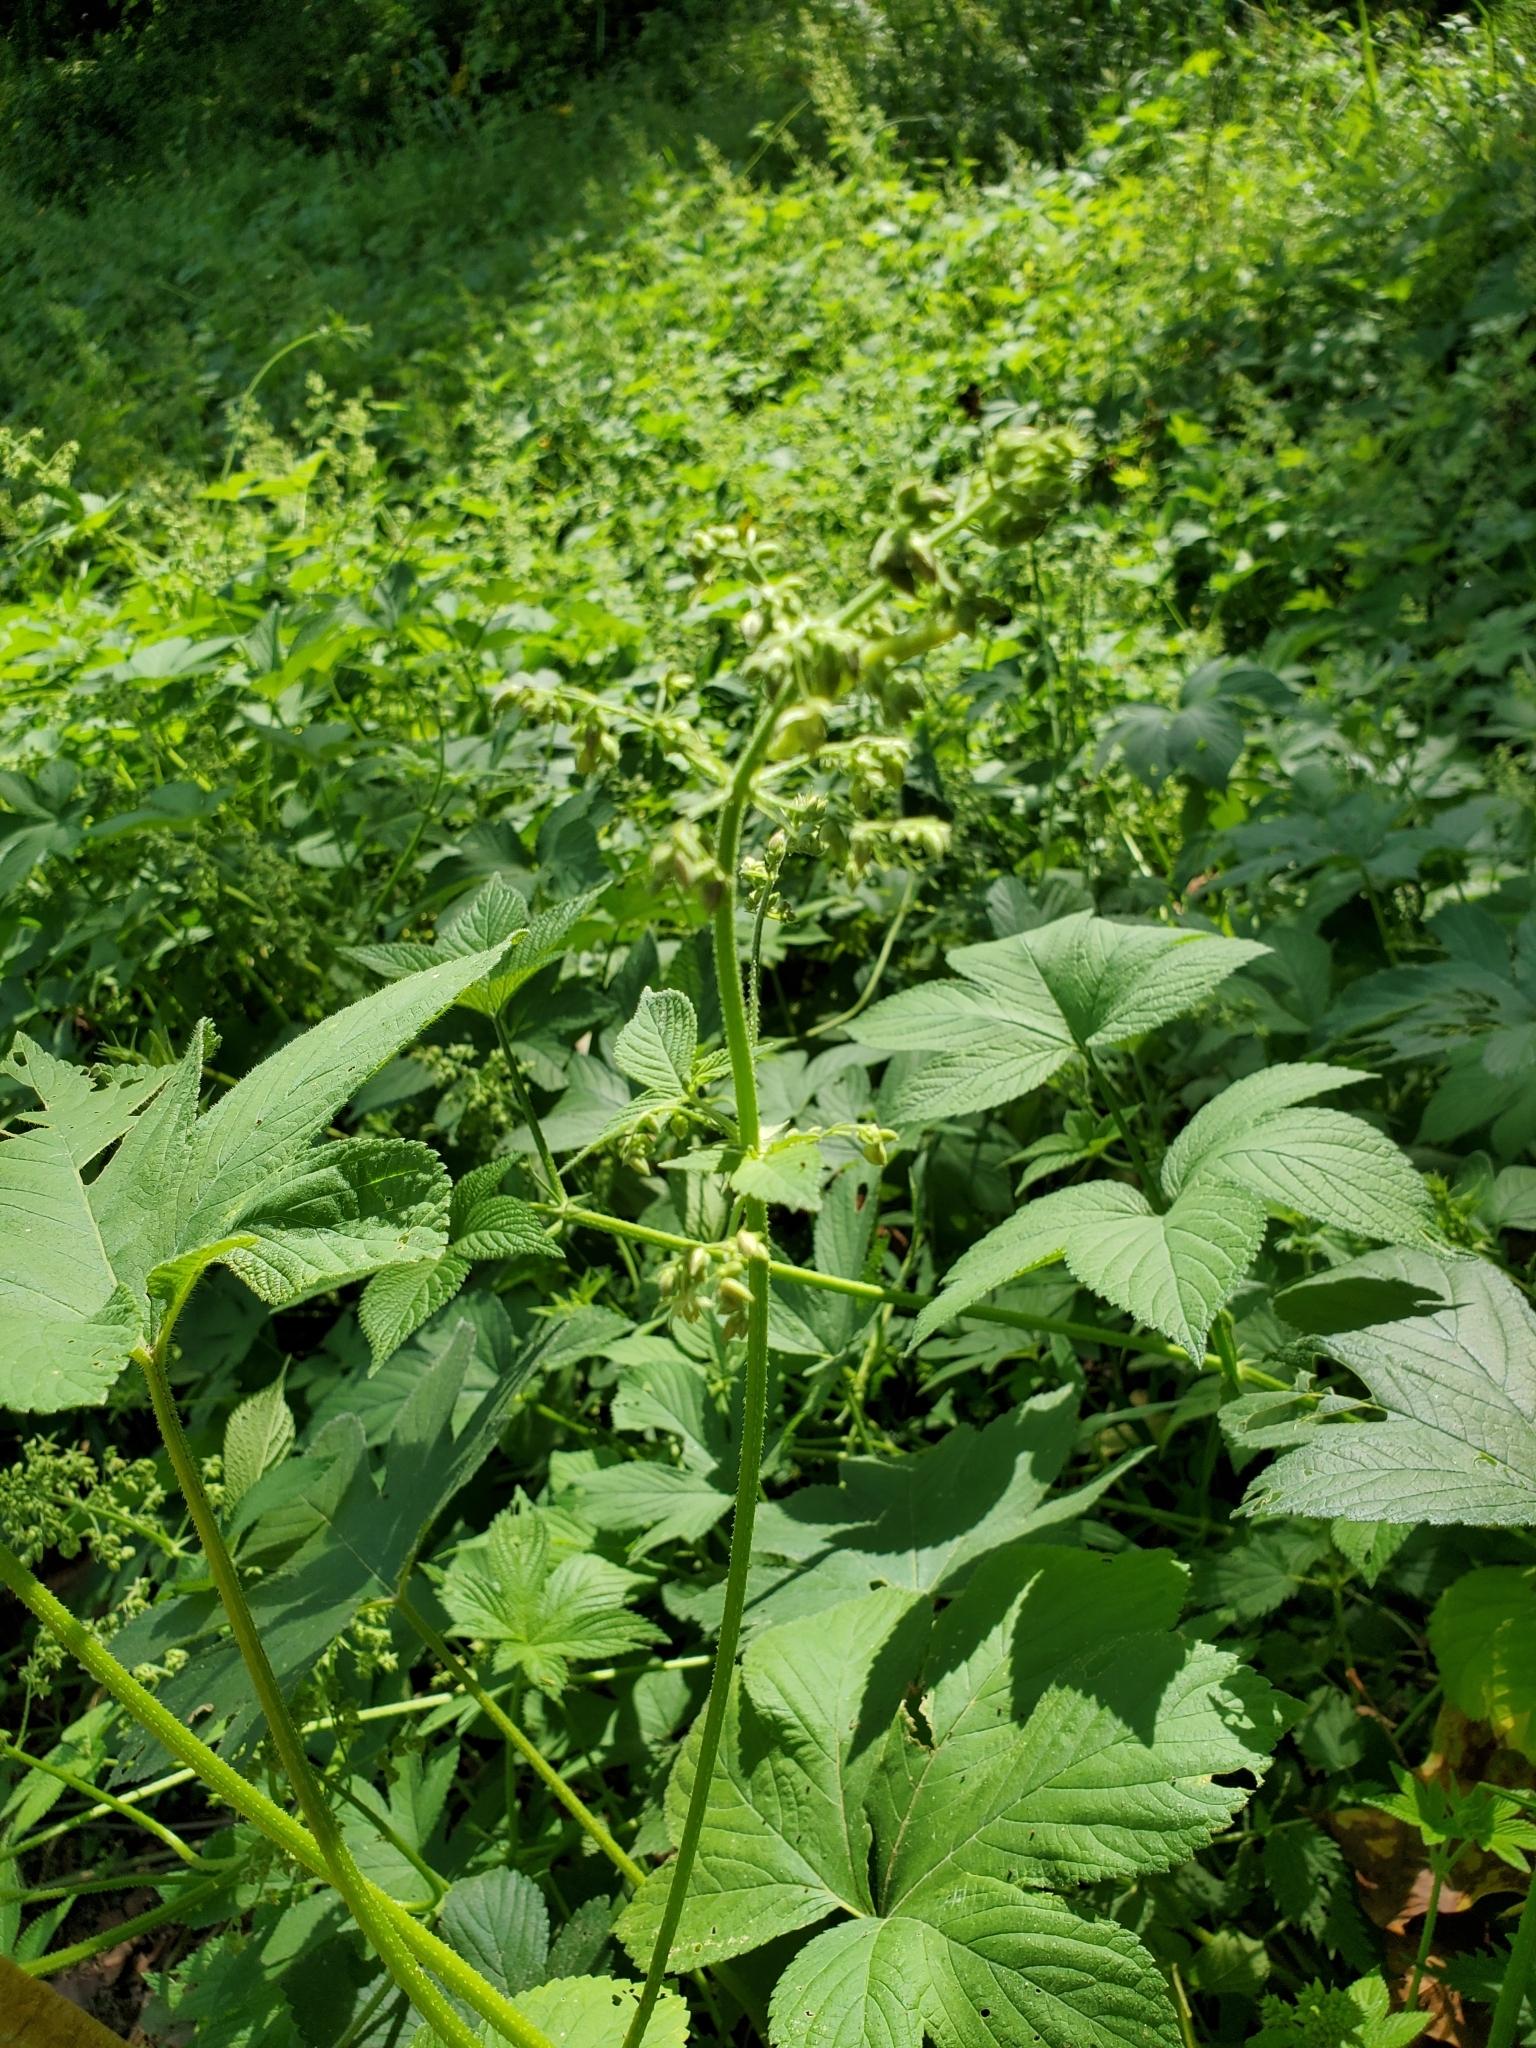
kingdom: Plantae
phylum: Tracheophyta
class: Magnoliopsida
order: Rosales
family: Cannabaceae
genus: Humulus
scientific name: Humulus scandens
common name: Japanese hop
